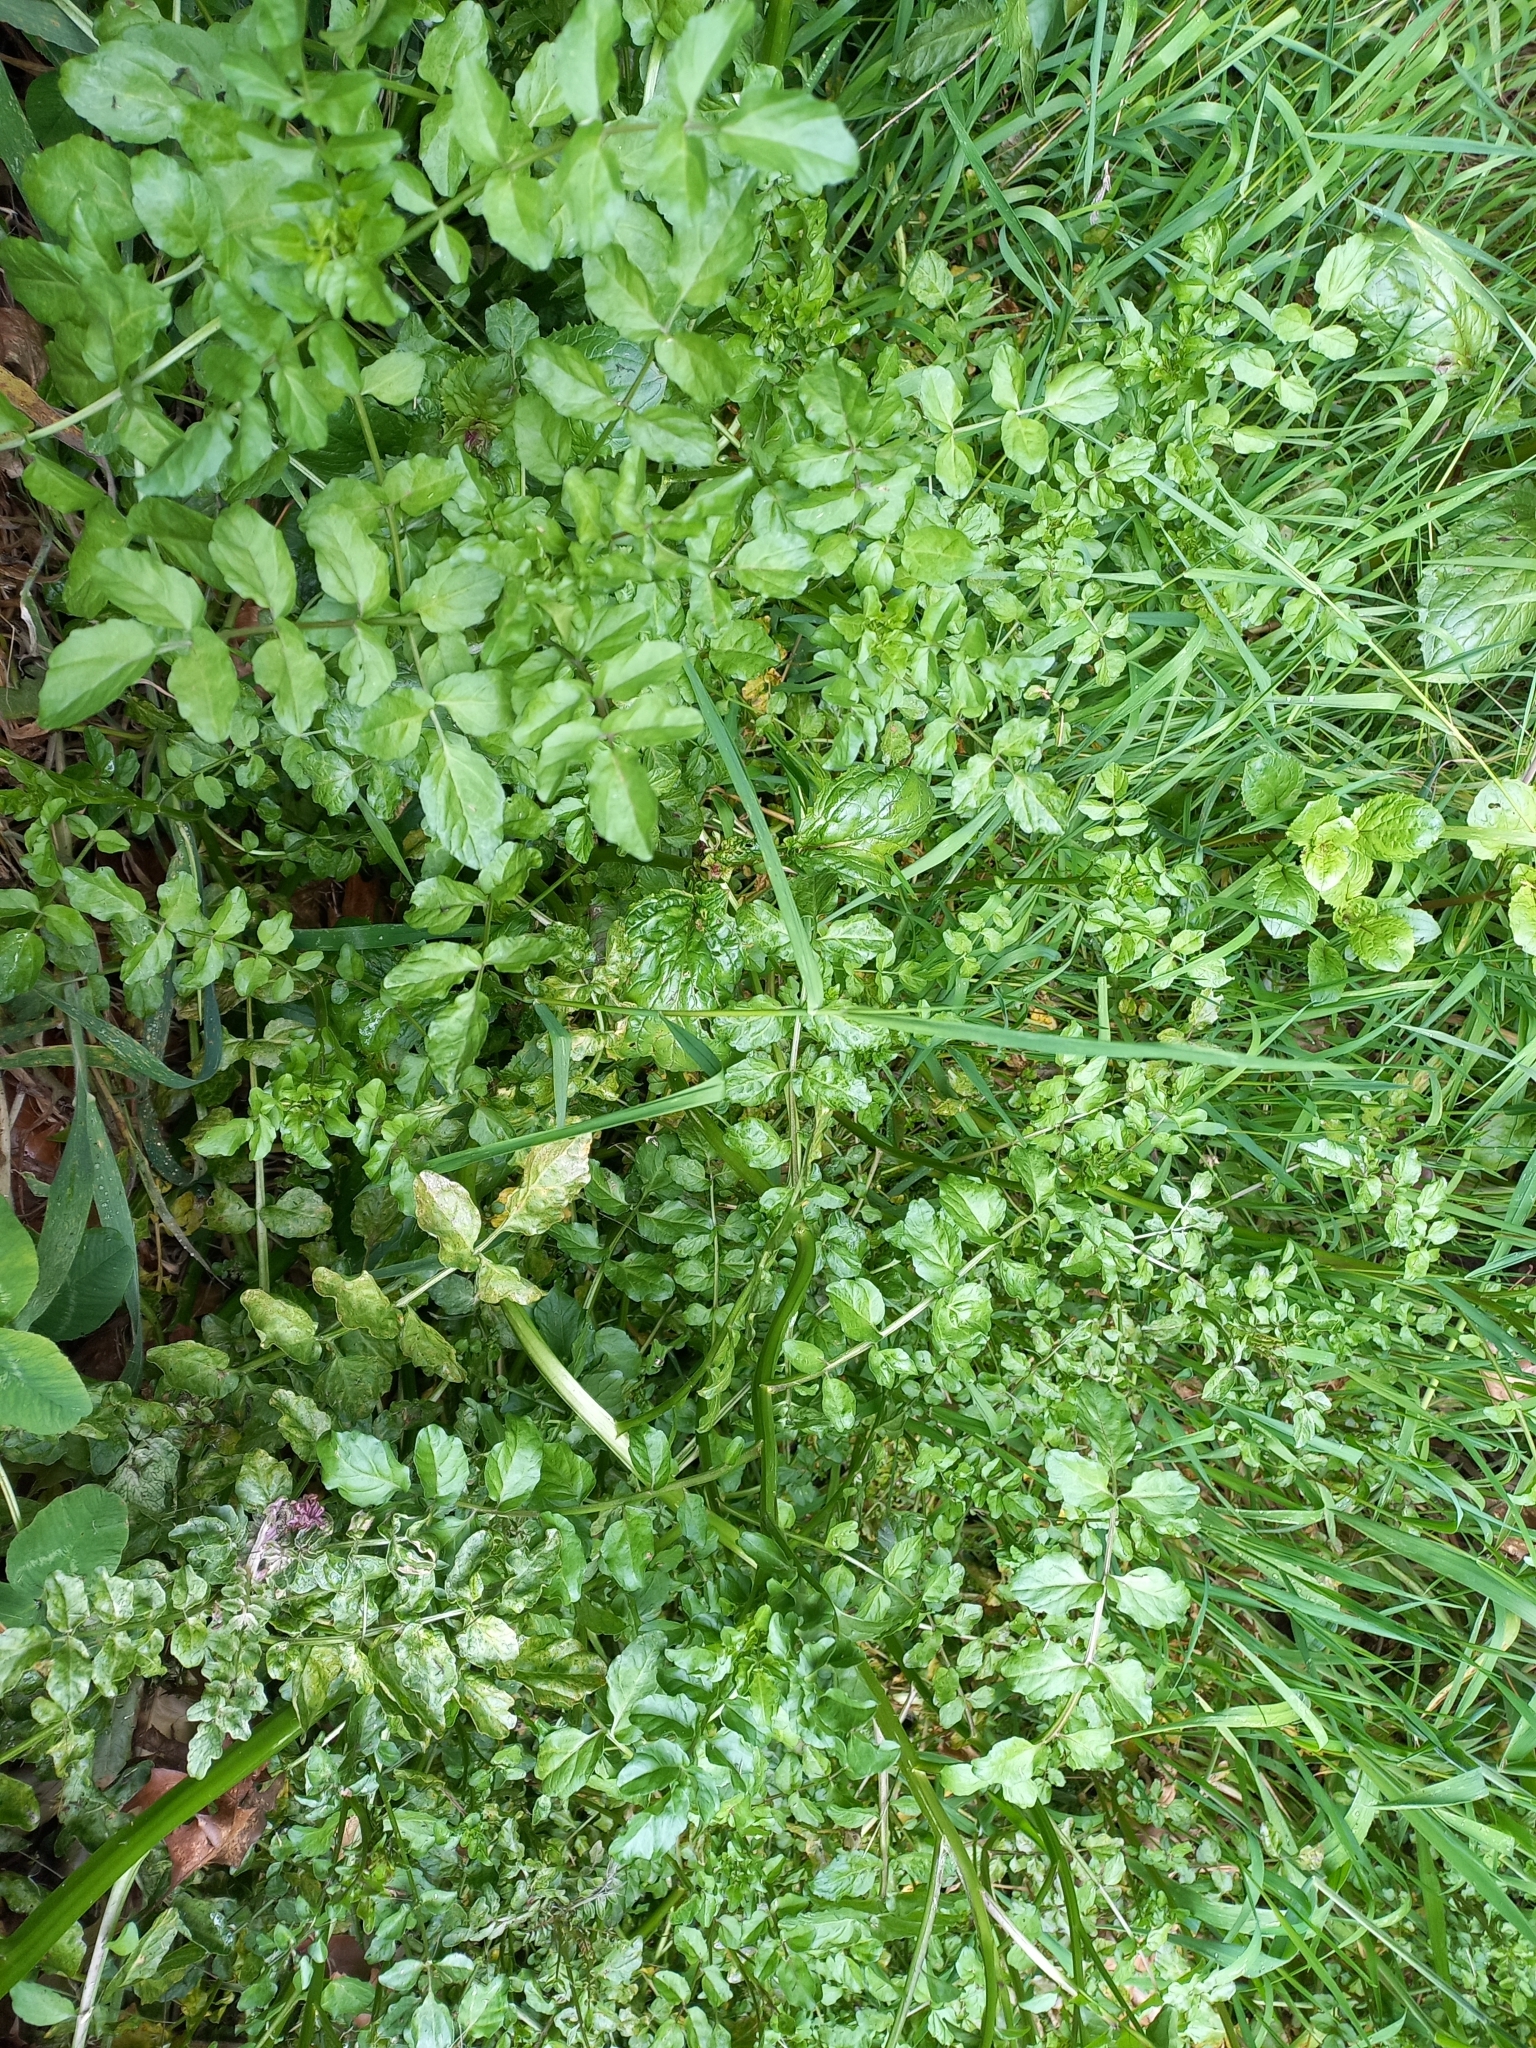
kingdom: Plantae
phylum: Tracheophyta
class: Magnoliopsida
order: Brassicales
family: Brassicaceae
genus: Nasturtium
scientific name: Nasturtium officinale
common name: Watercress
